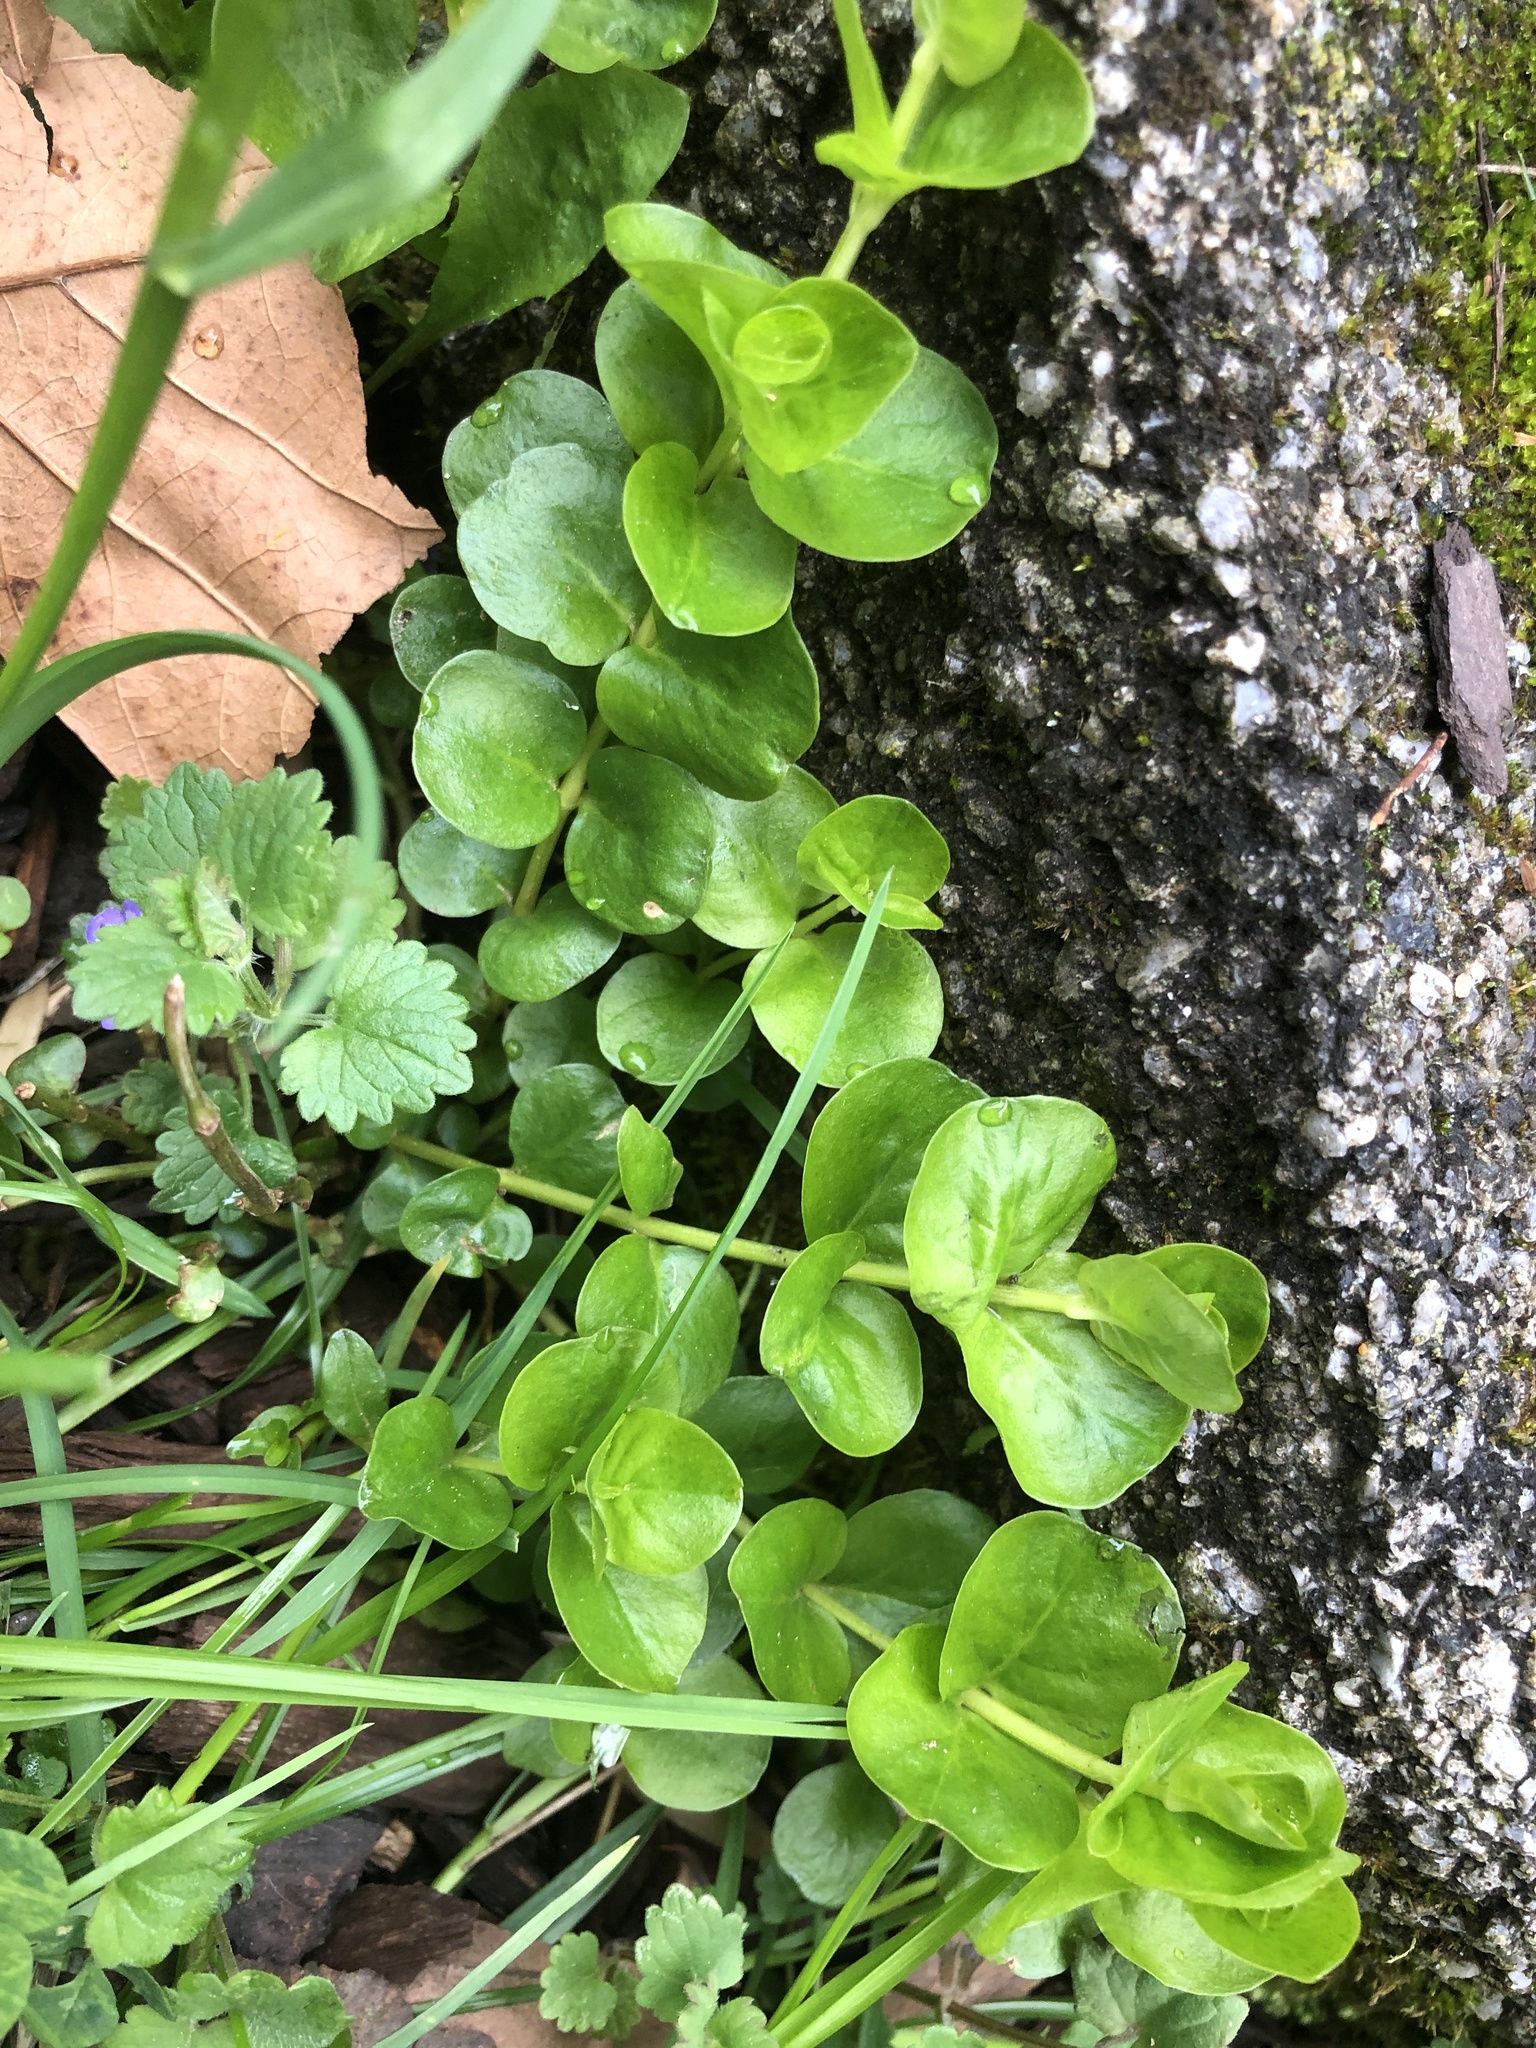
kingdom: Plantae
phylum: Tracheophyta
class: Magnoliopsida
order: Ericales
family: Primulaceae
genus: Lysimachia
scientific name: Lysimachia nummularia
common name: Moneywort
